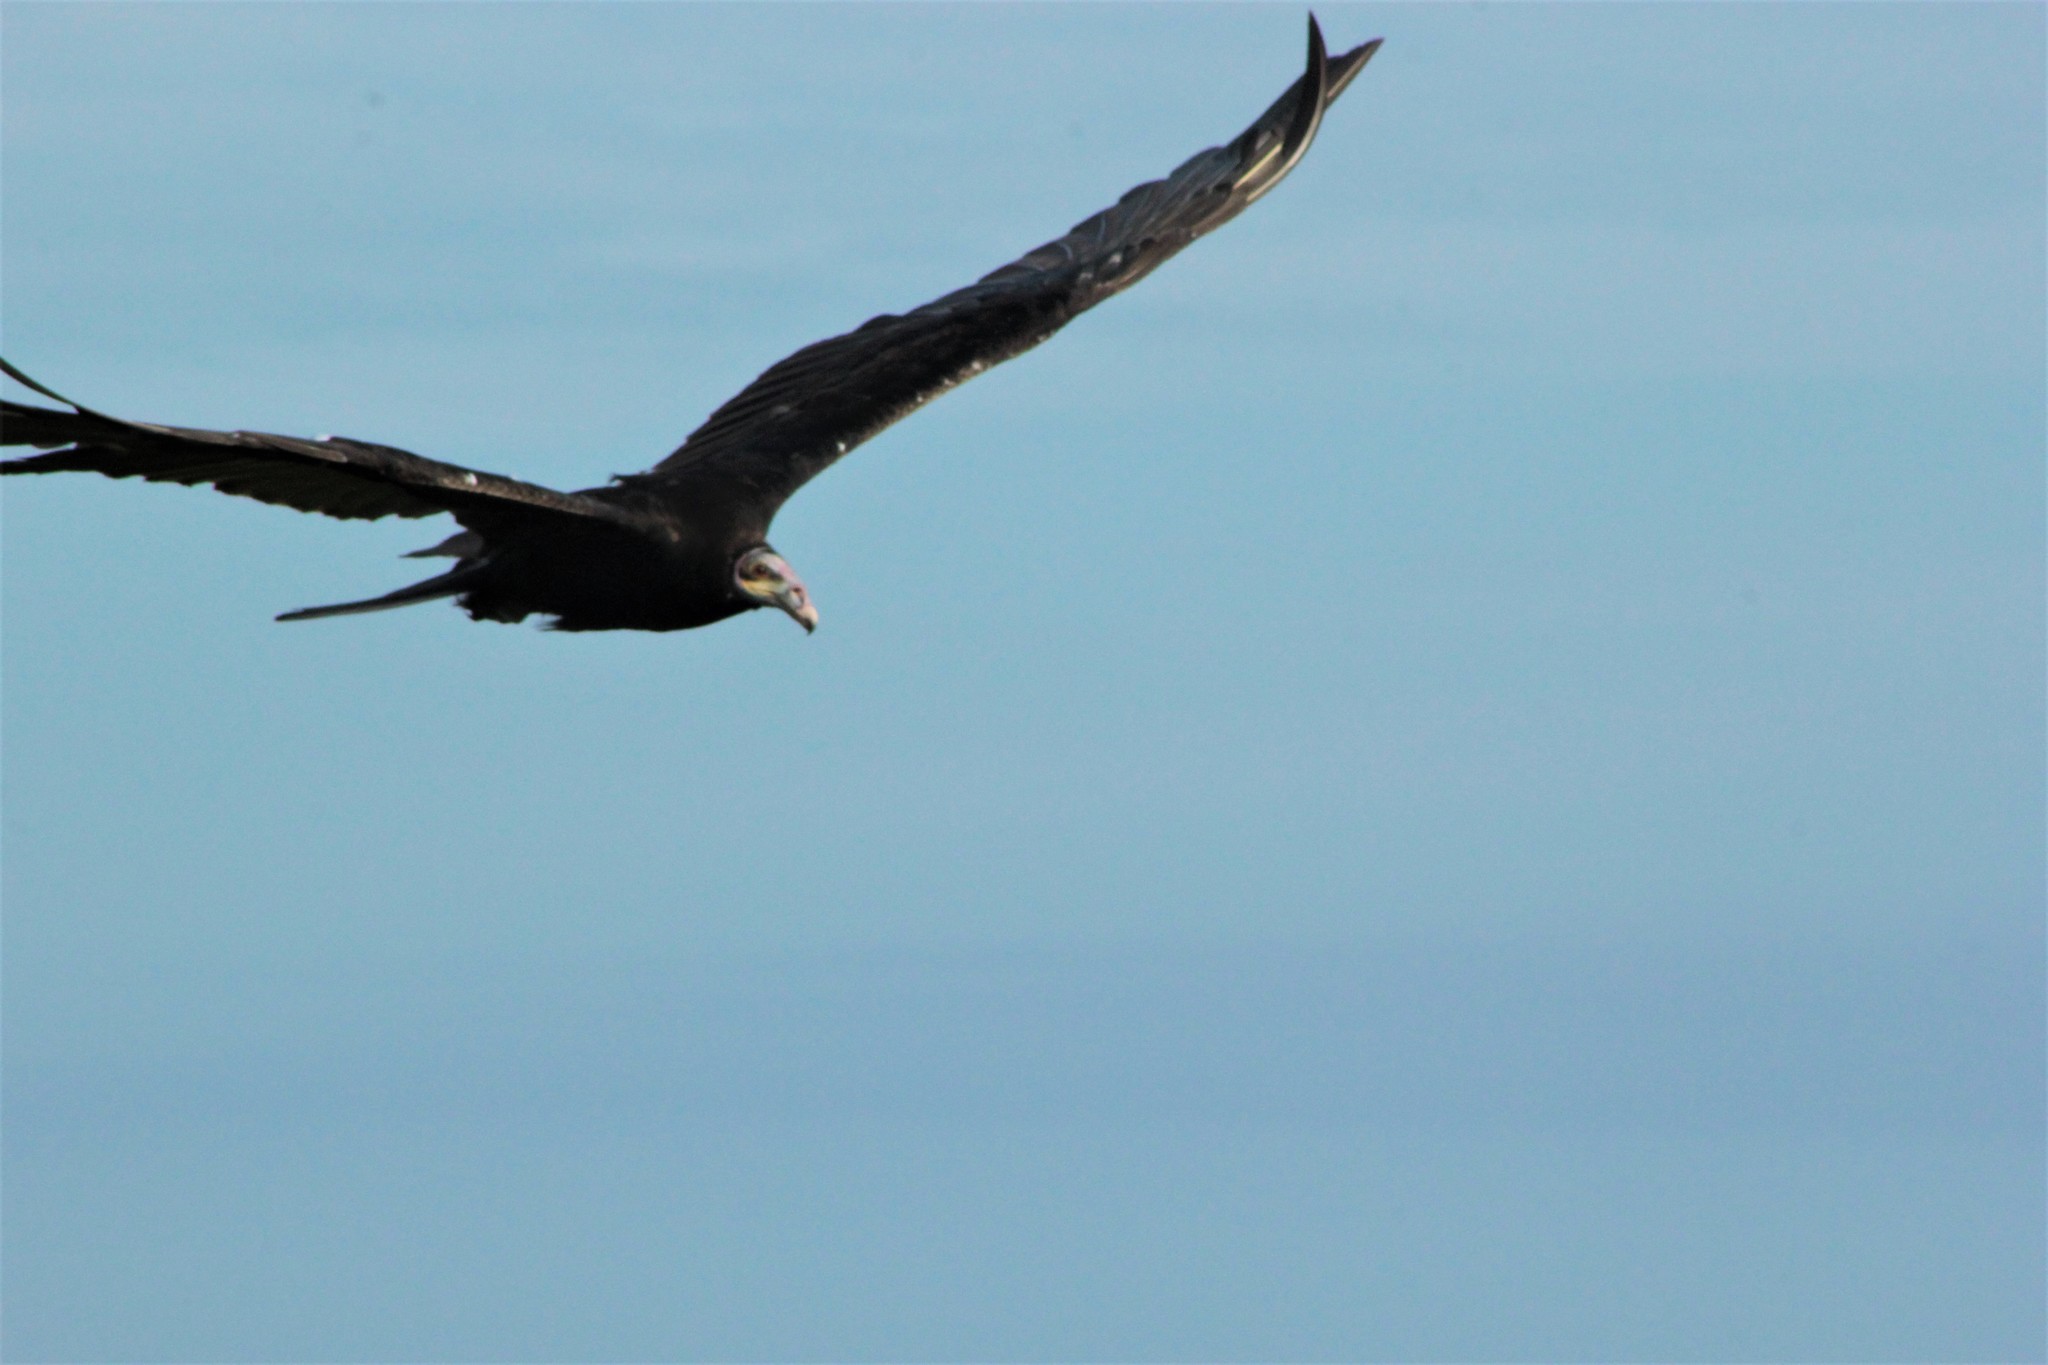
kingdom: Animalia
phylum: Chordata
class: Aves
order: Accipitriformes
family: Cathartidae
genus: Cathartes
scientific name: Cathartes burrovianus
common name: Lesser yellow-headed vulture
